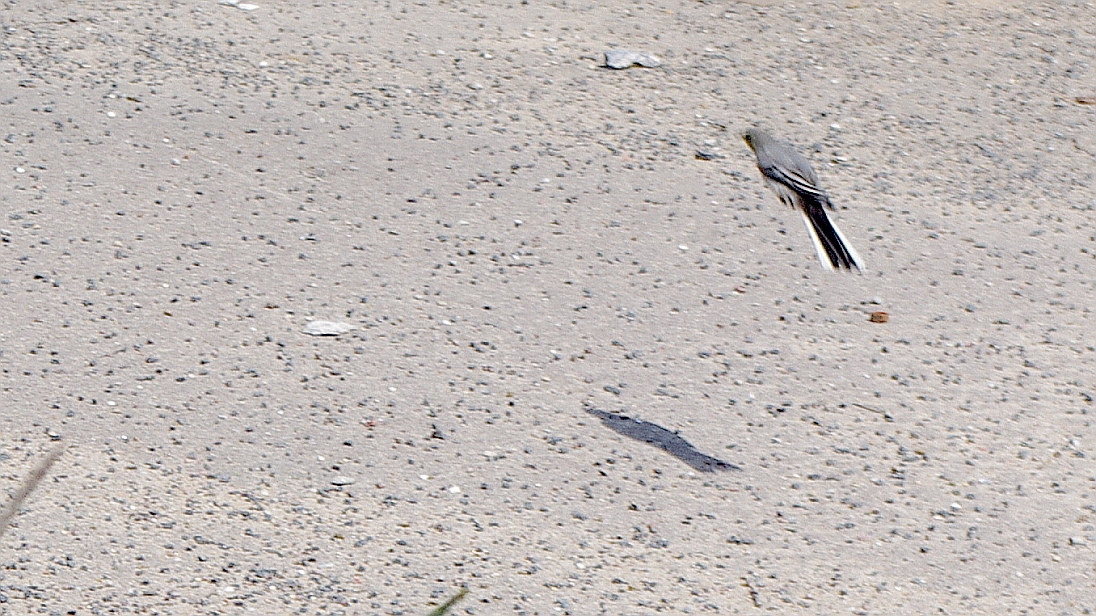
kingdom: Animalia
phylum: Chordata
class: Aves
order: Passeriformes
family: Motacillidae
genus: Motacilla
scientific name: Motacilla alba
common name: White wagtail
